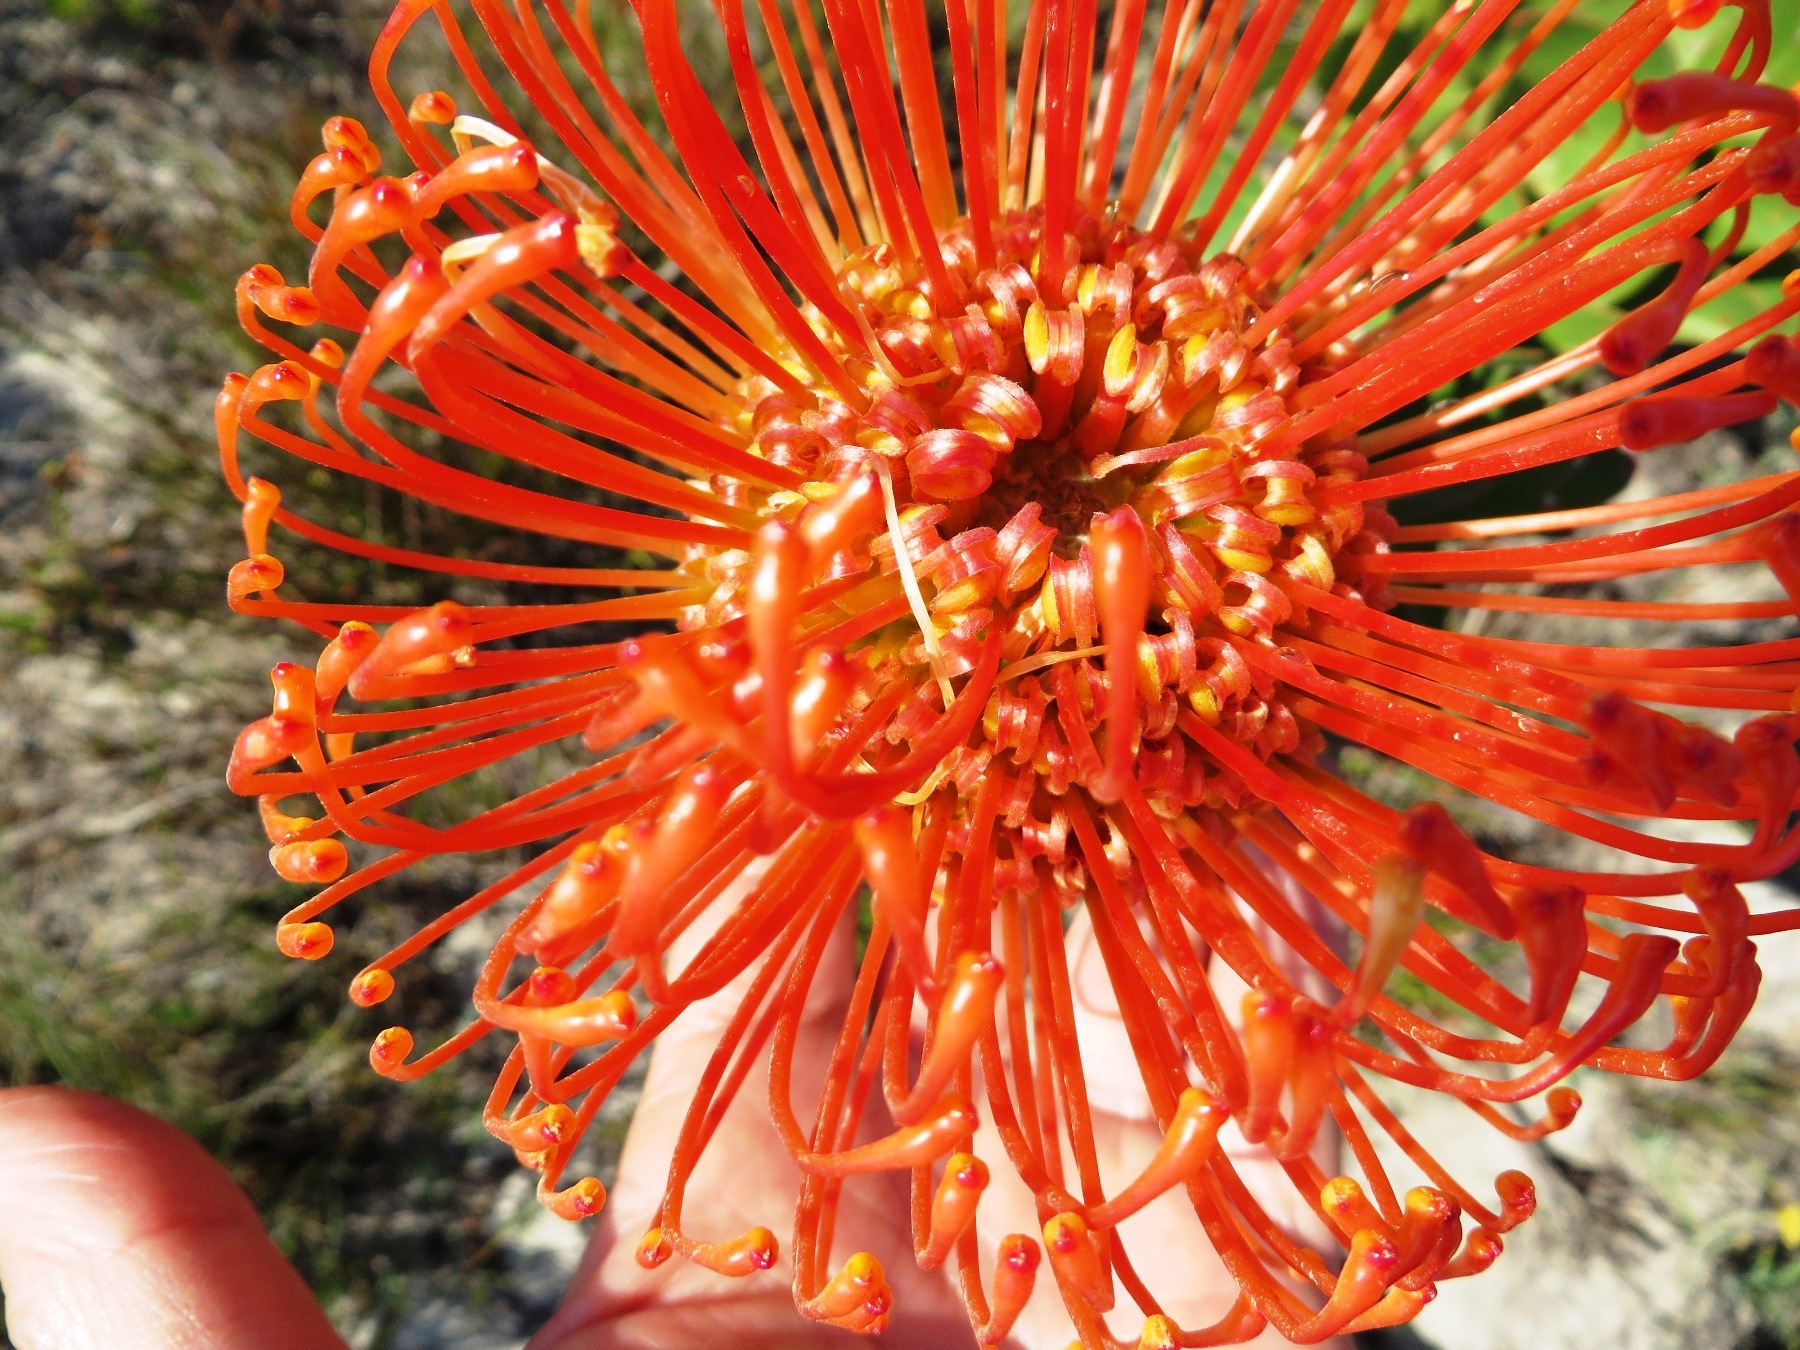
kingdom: Plantae
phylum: Tracheophyta
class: Magnoliopsida
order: Proteales
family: Proteaceae
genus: Leucospermum
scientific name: Leucospermum cordifolium
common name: Red pincushion-protea
